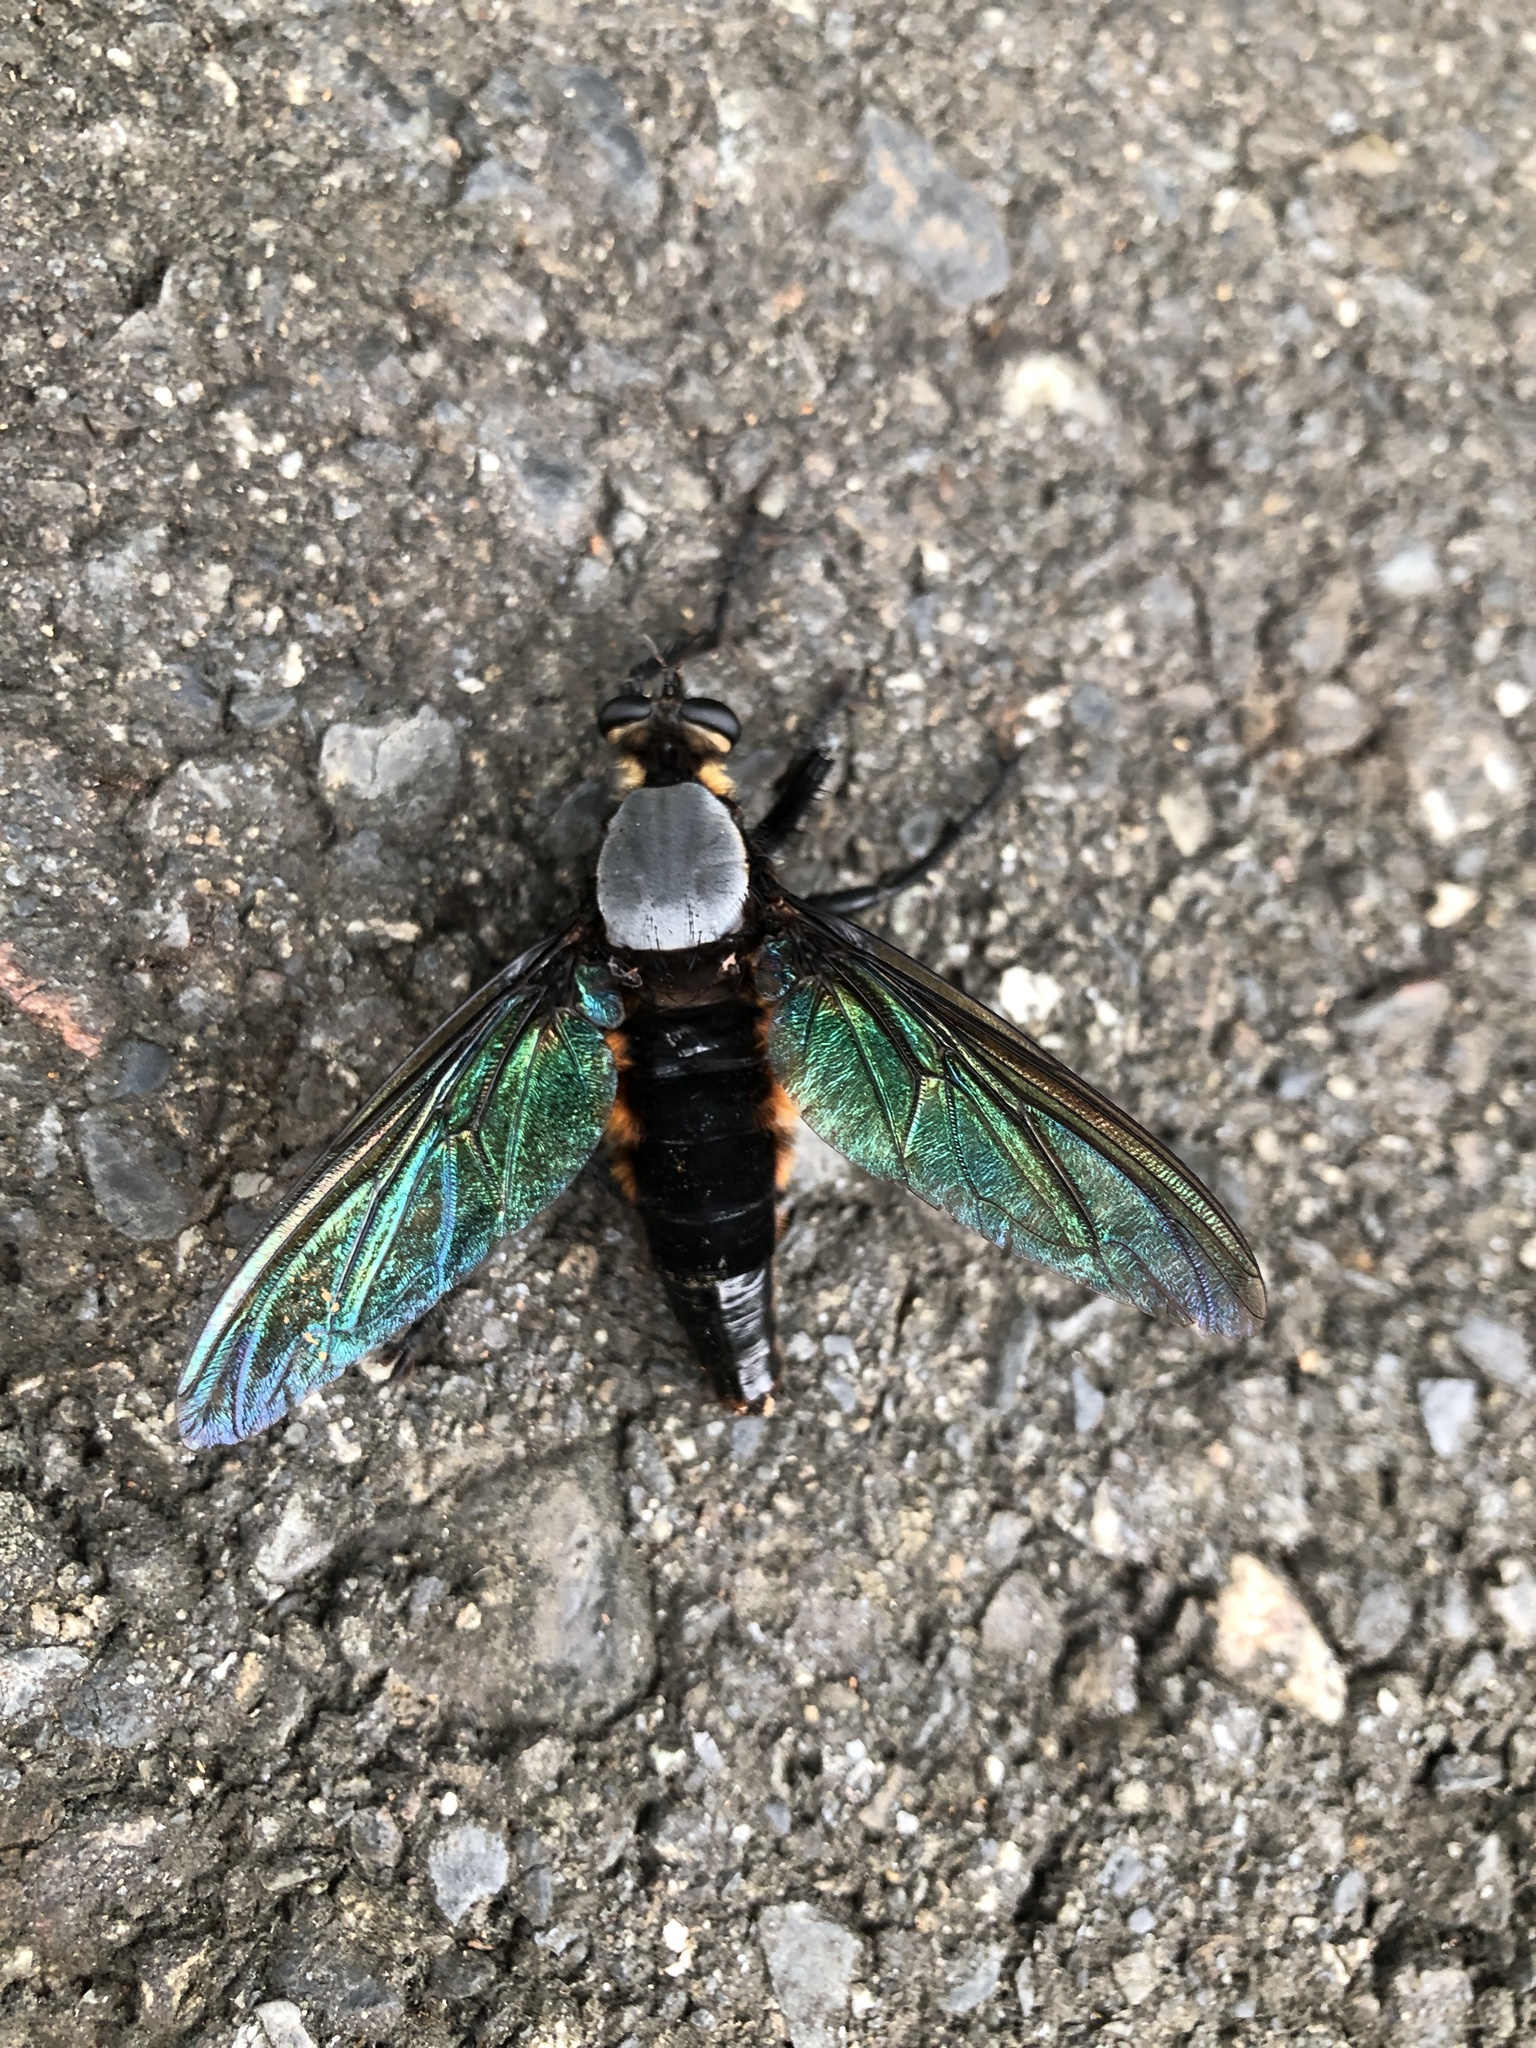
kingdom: Animalia
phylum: Arthropoda
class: Insecta
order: Diptera
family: Asilidae
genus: Microstylum
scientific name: Microstylum oberthurii
